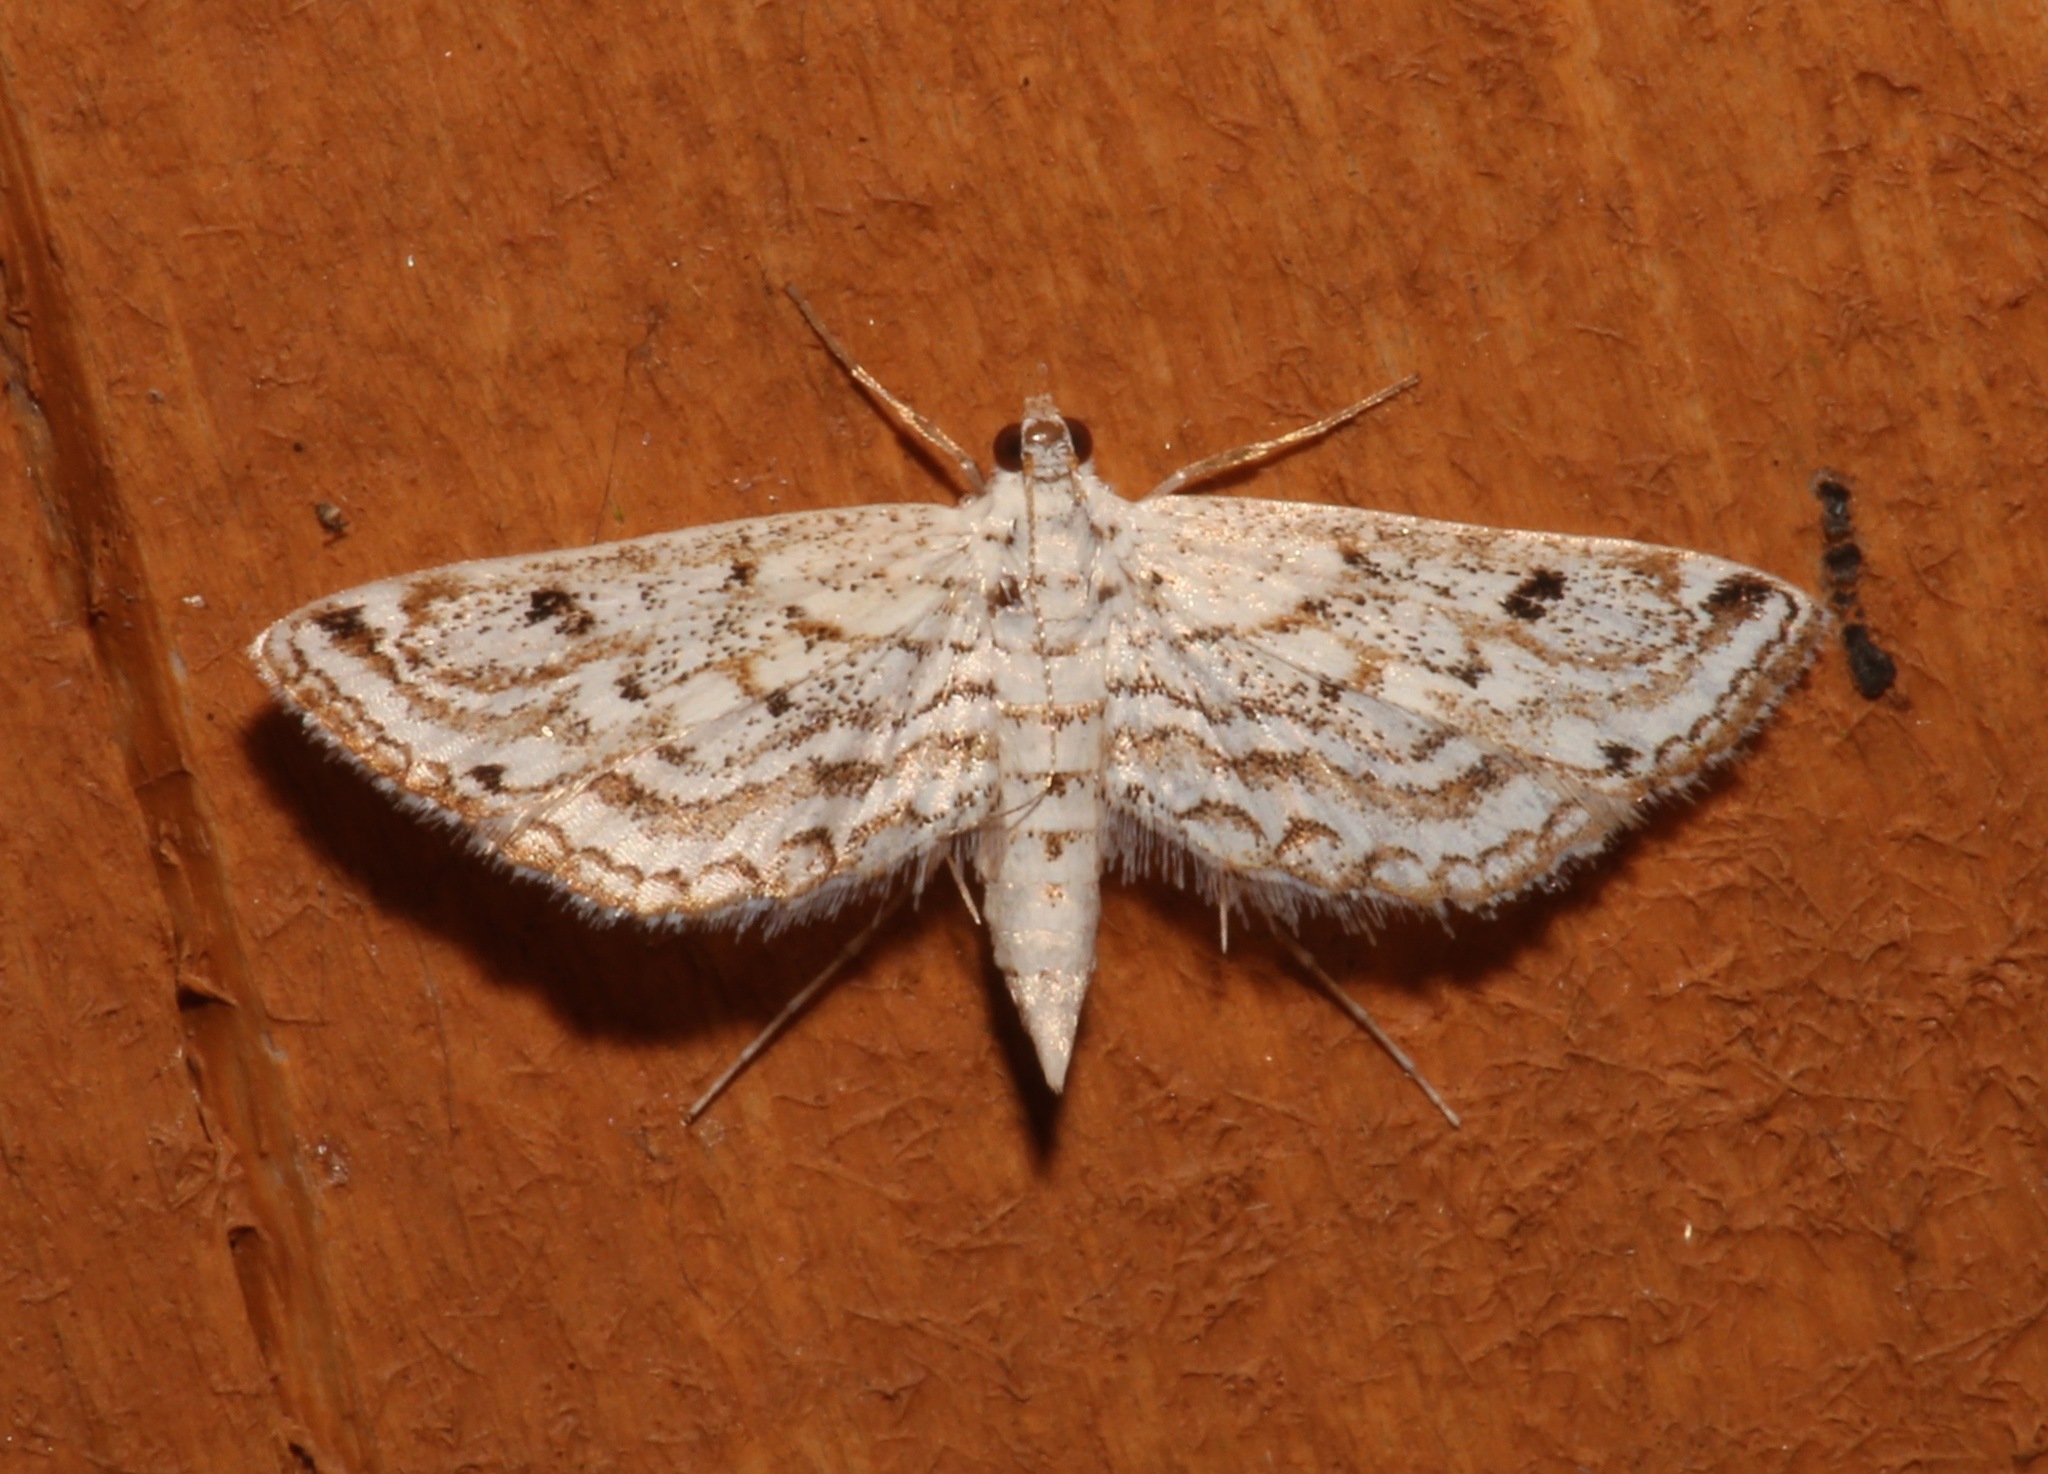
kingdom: Animalia
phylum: Arthropoda
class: Insecta
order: Lepidoptera
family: Crambidae
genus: Parapoynx
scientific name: Parapoynx allionealis
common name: Bladderwort casemaker
